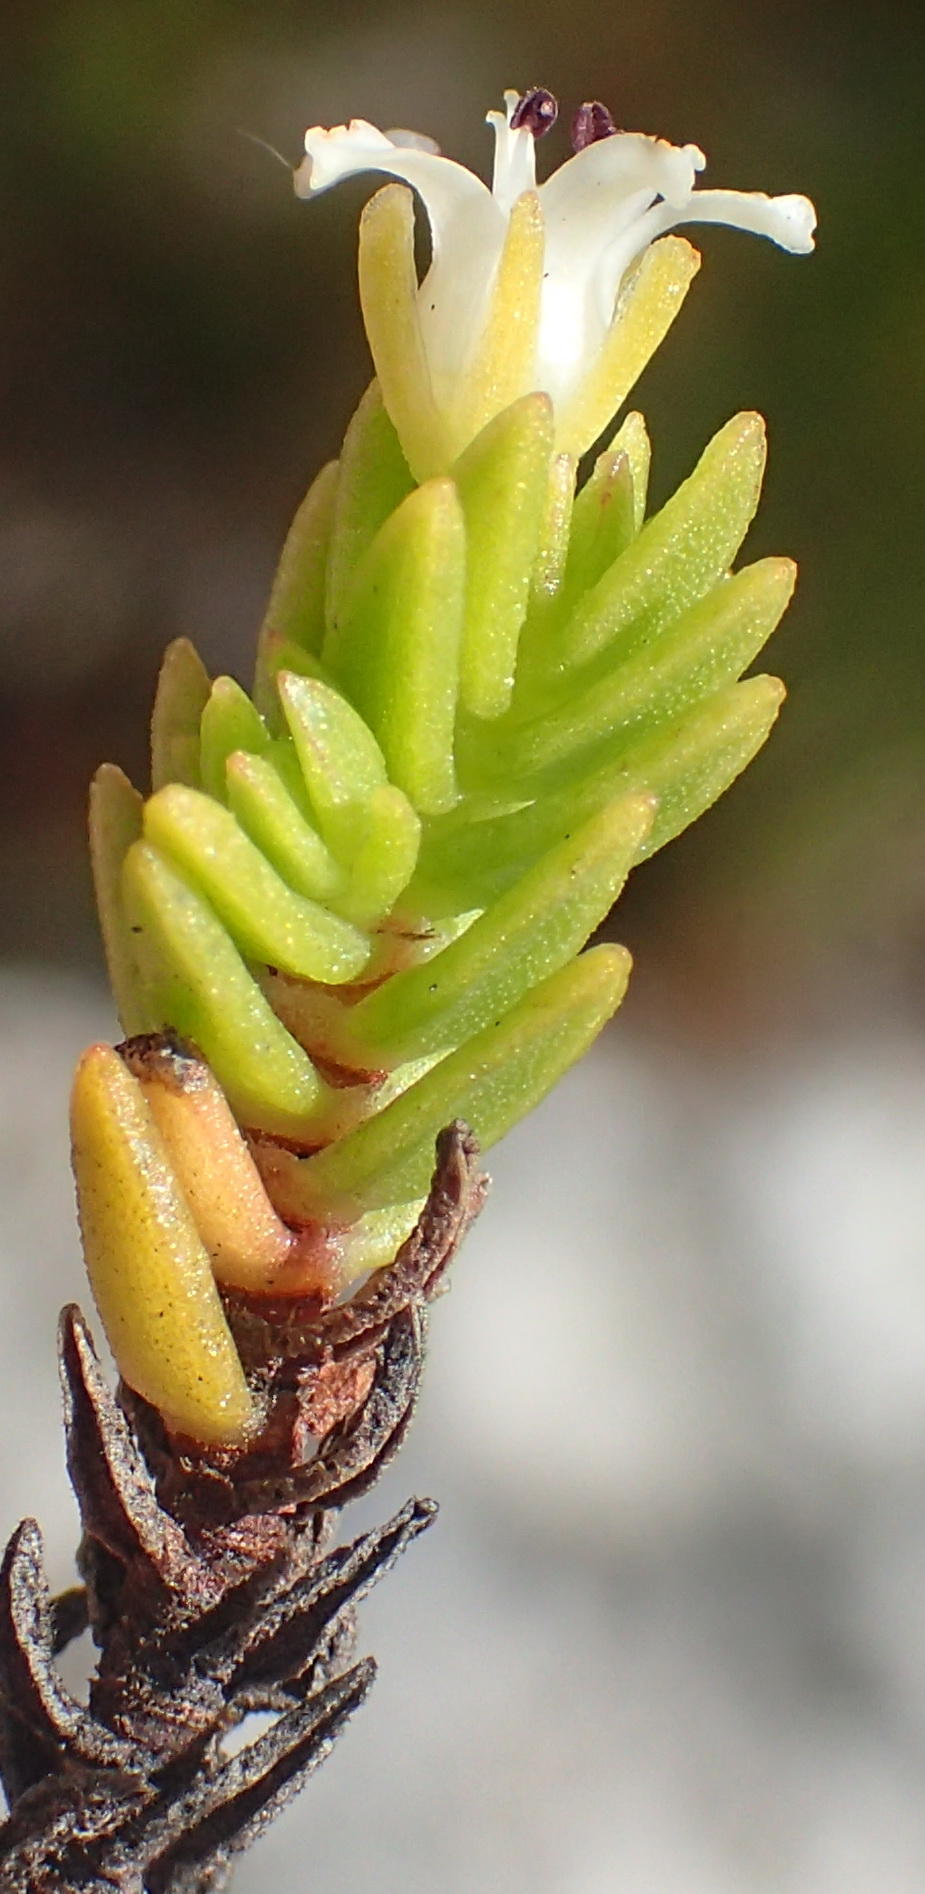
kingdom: Plantae
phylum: Tracheophyta
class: Magnoliopsida
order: Saxifragales
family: Crassulaceae
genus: Crassula
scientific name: Crassula ericoides
